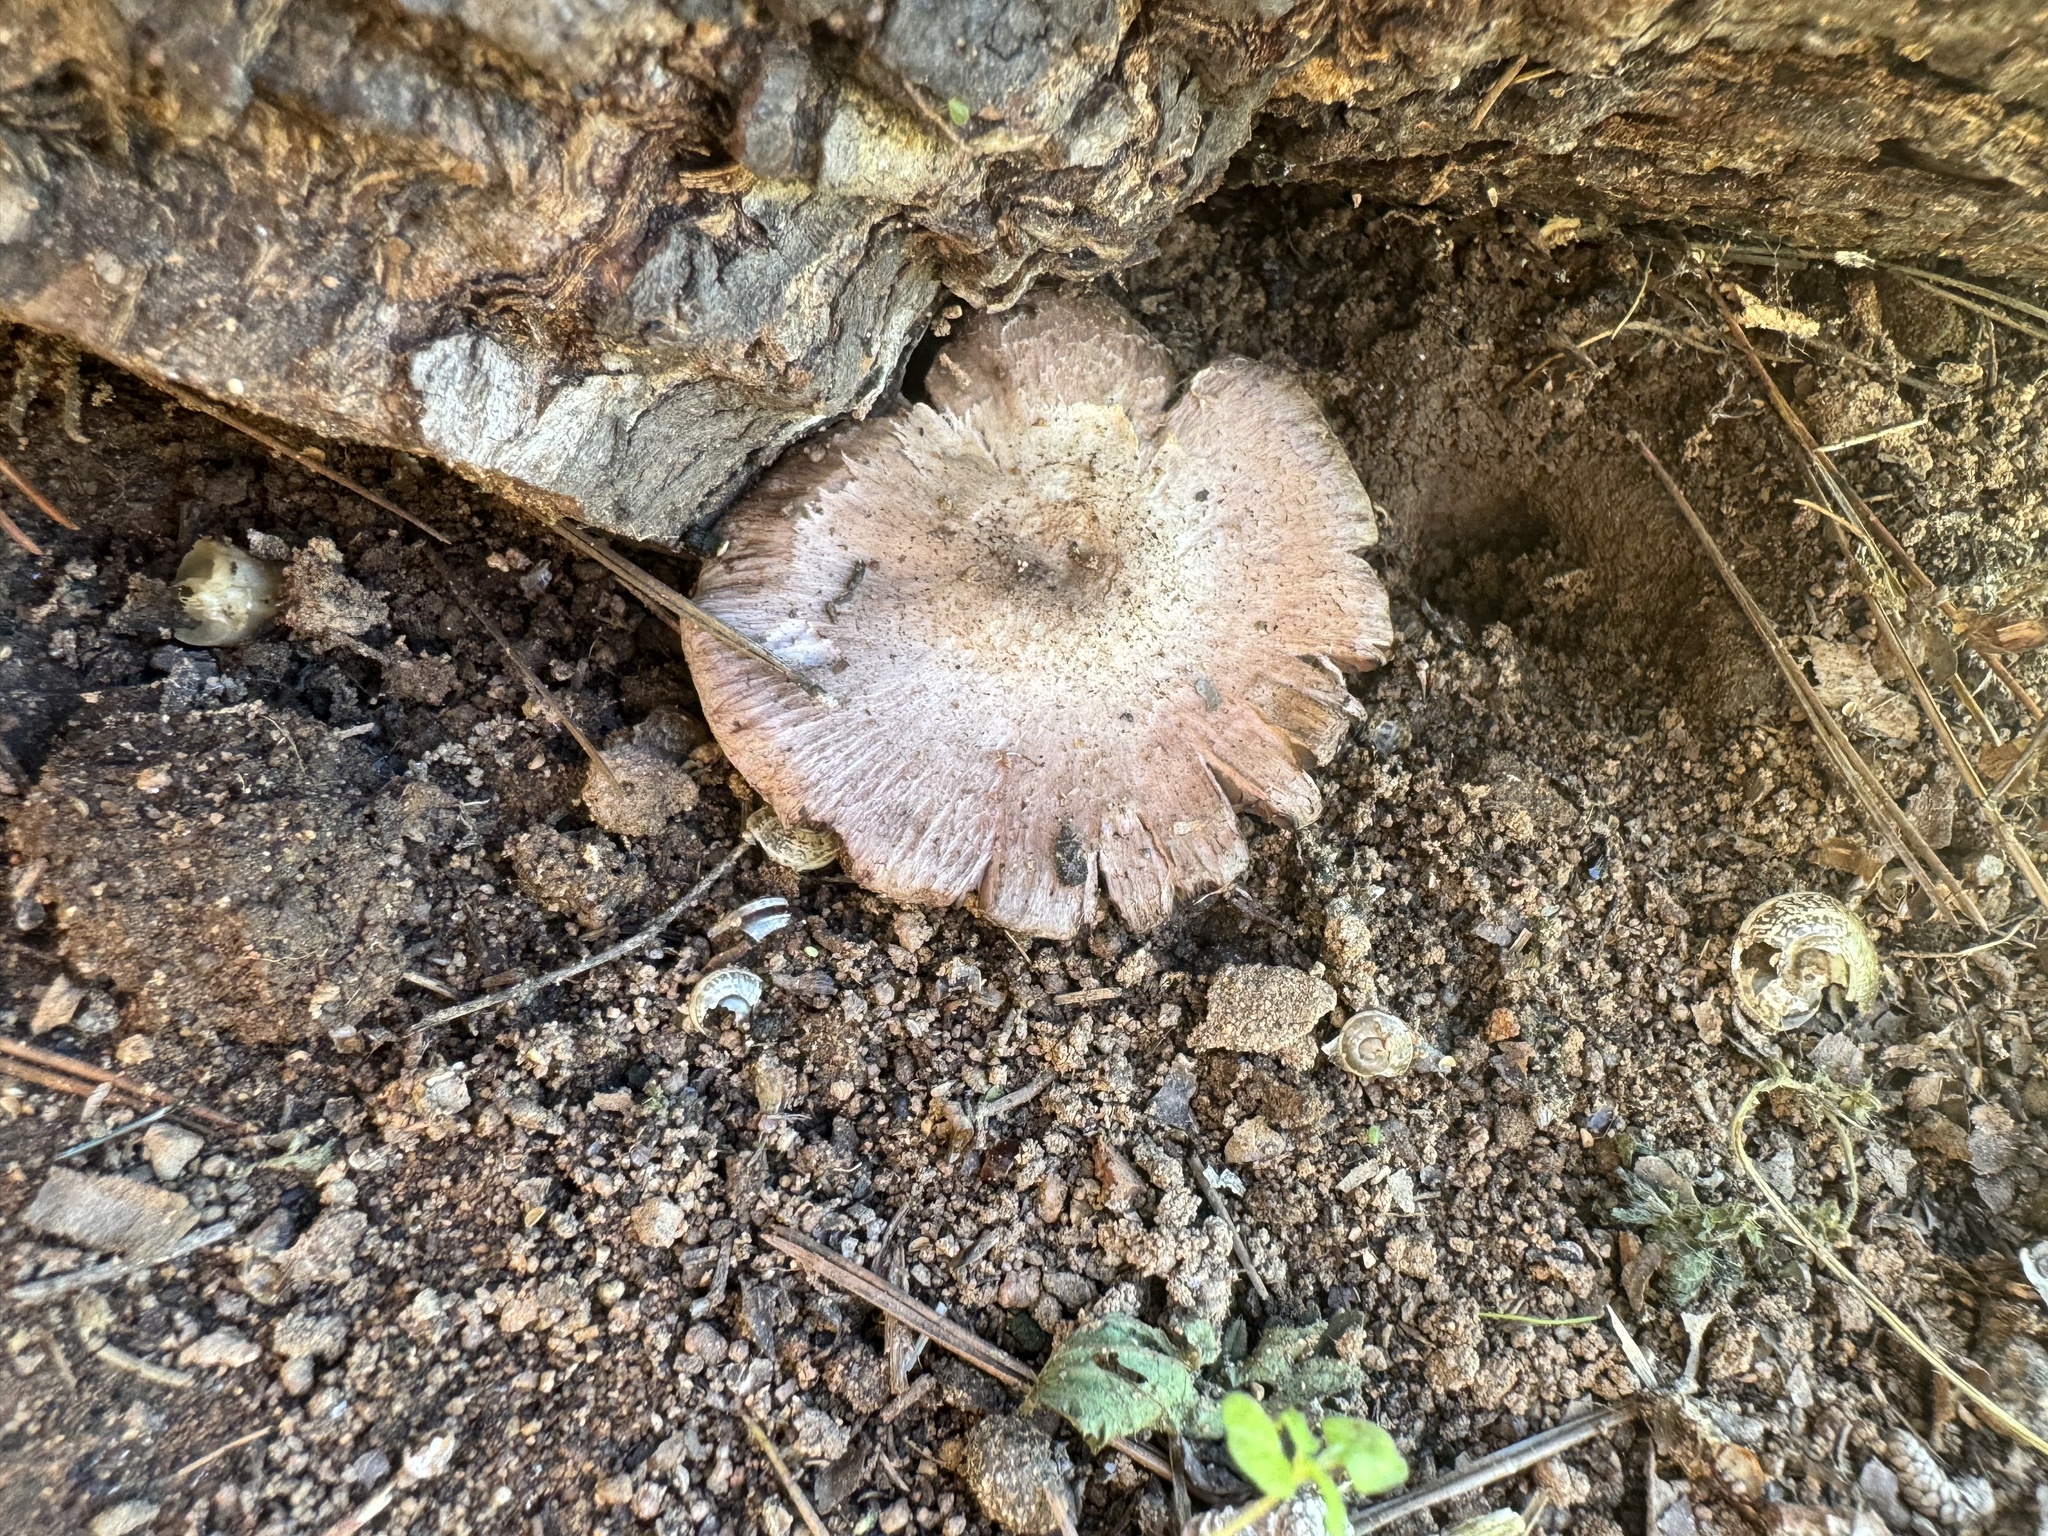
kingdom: Fungi
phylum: Basidiomycota
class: Agaricomycetes
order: Agaricales
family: Agaricaceae
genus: Agaricus
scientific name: Agaricus californicus
